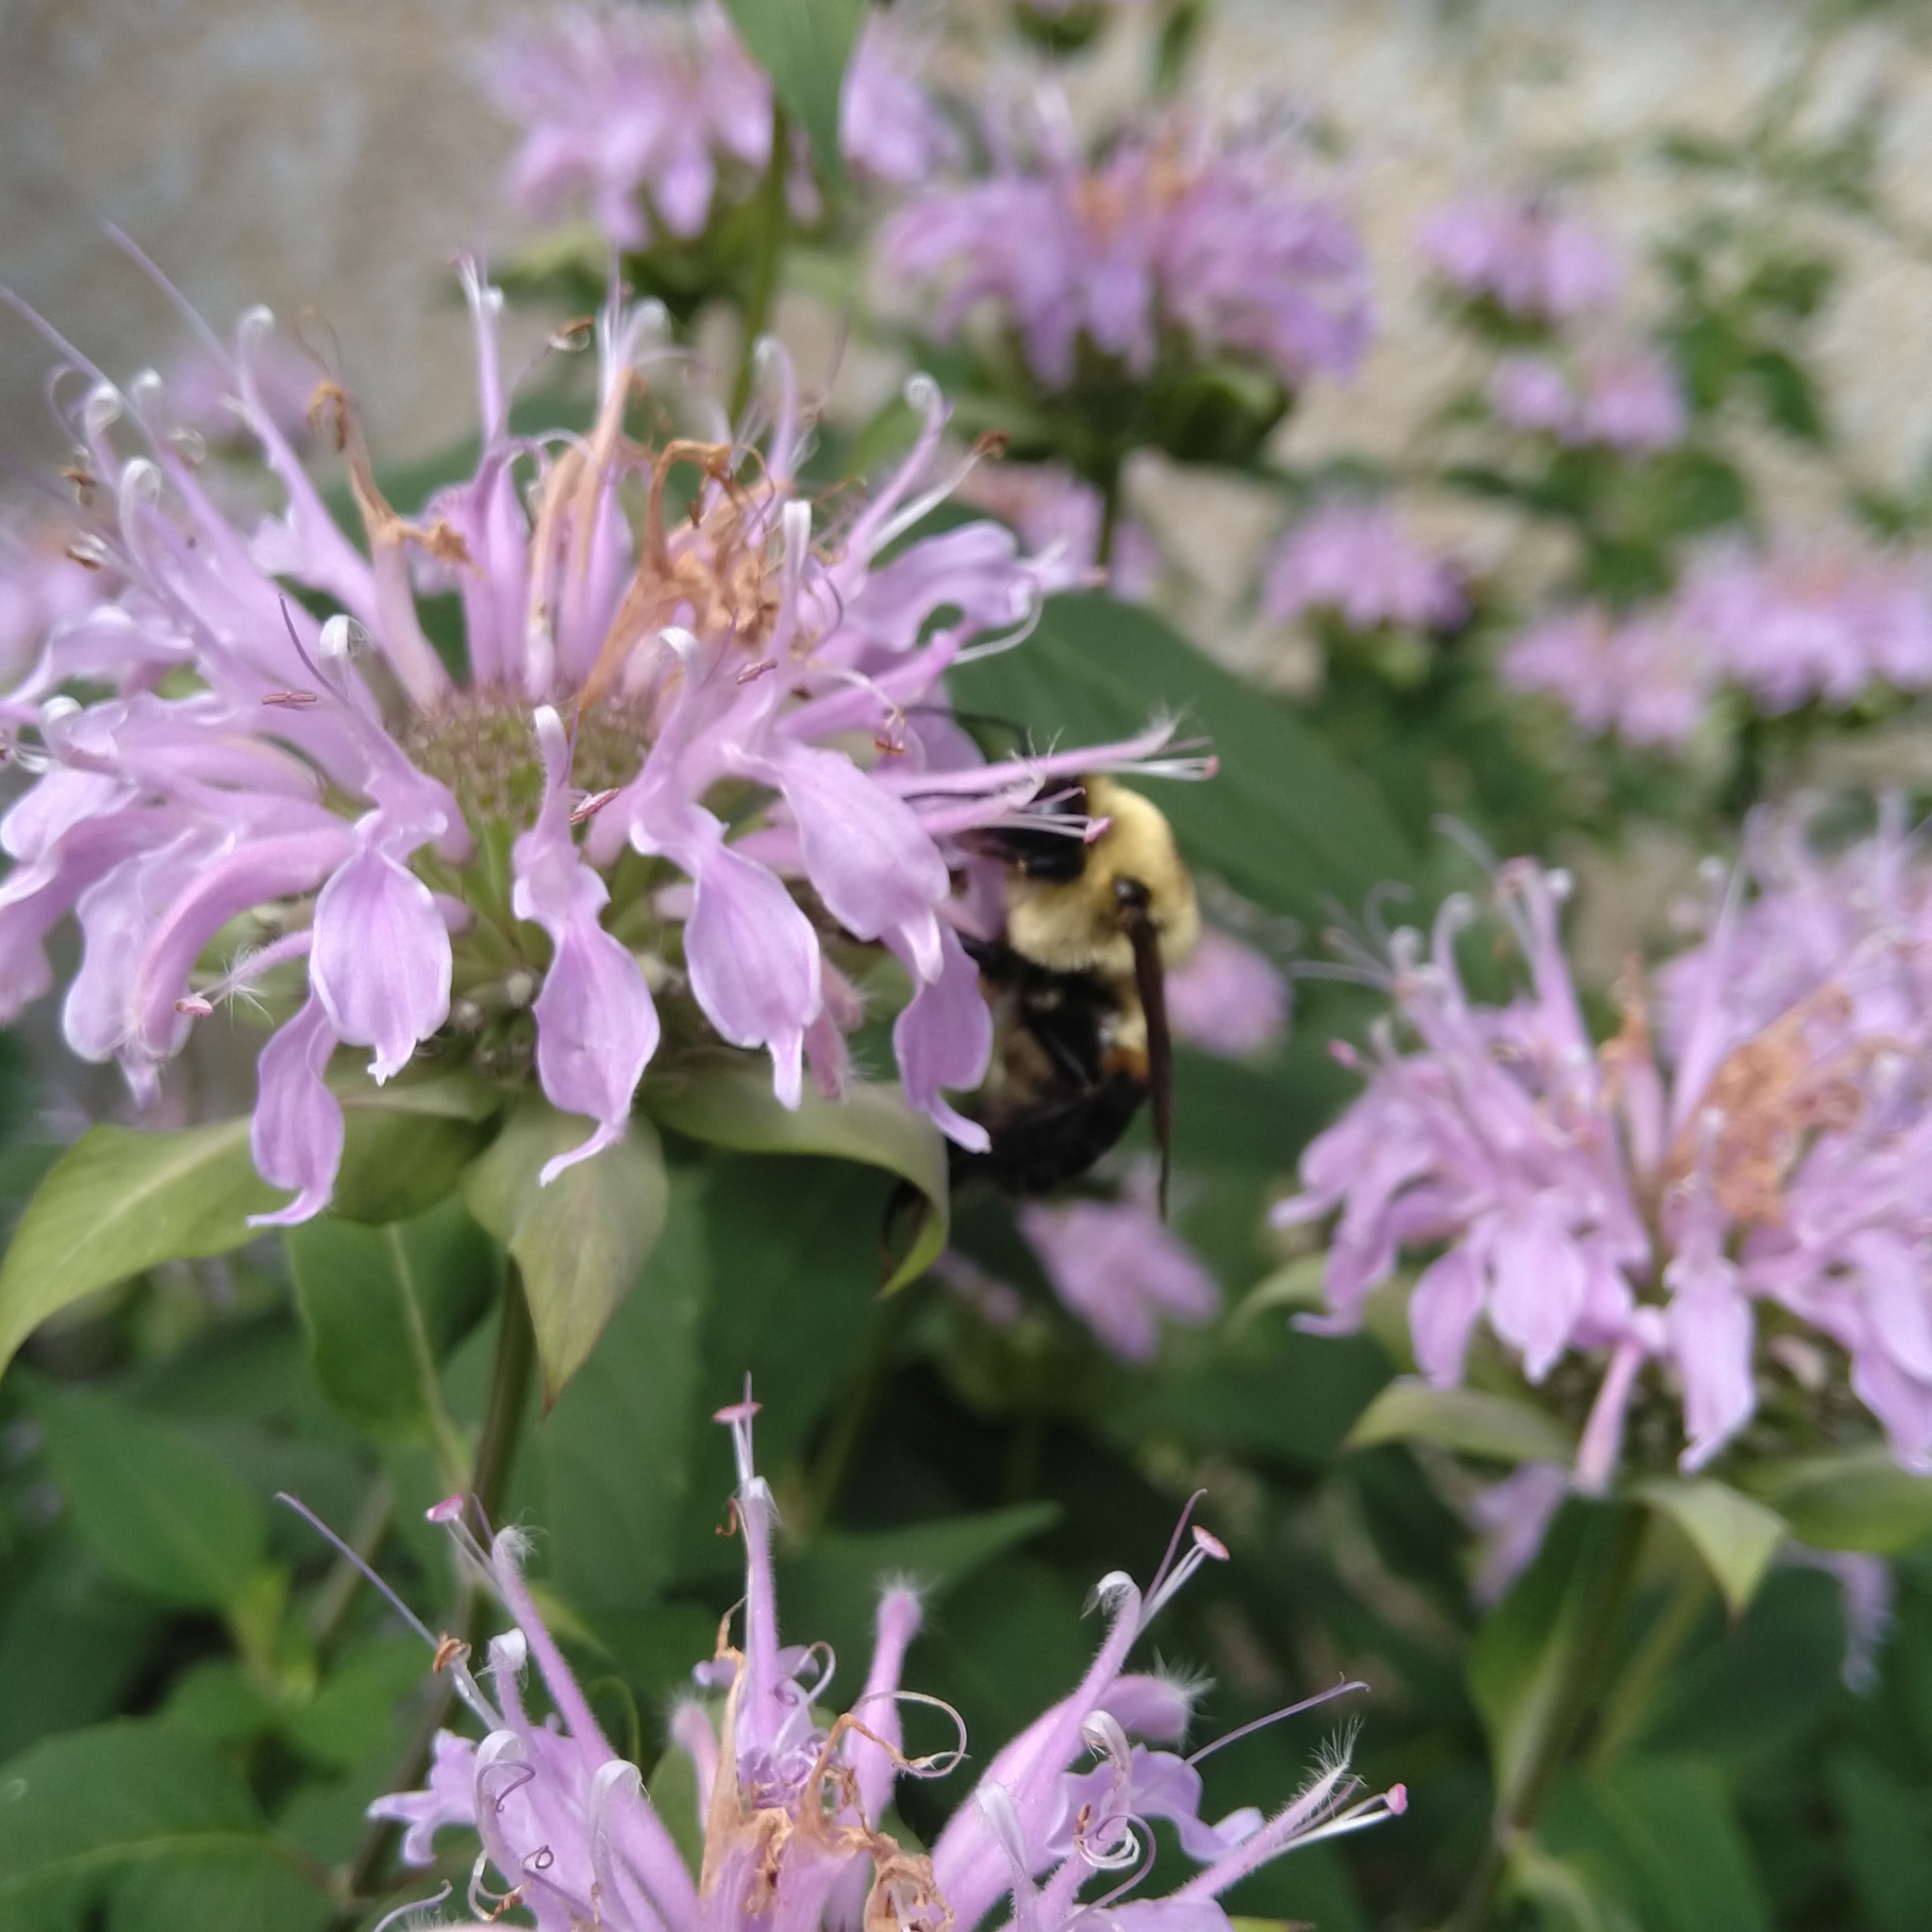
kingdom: Animalia
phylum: Arthropoda
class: Insecta
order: Hymenoptera
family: Apidae
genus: Bombus
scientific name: Bombus griseocollis
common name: Brown-belted bumble bee
